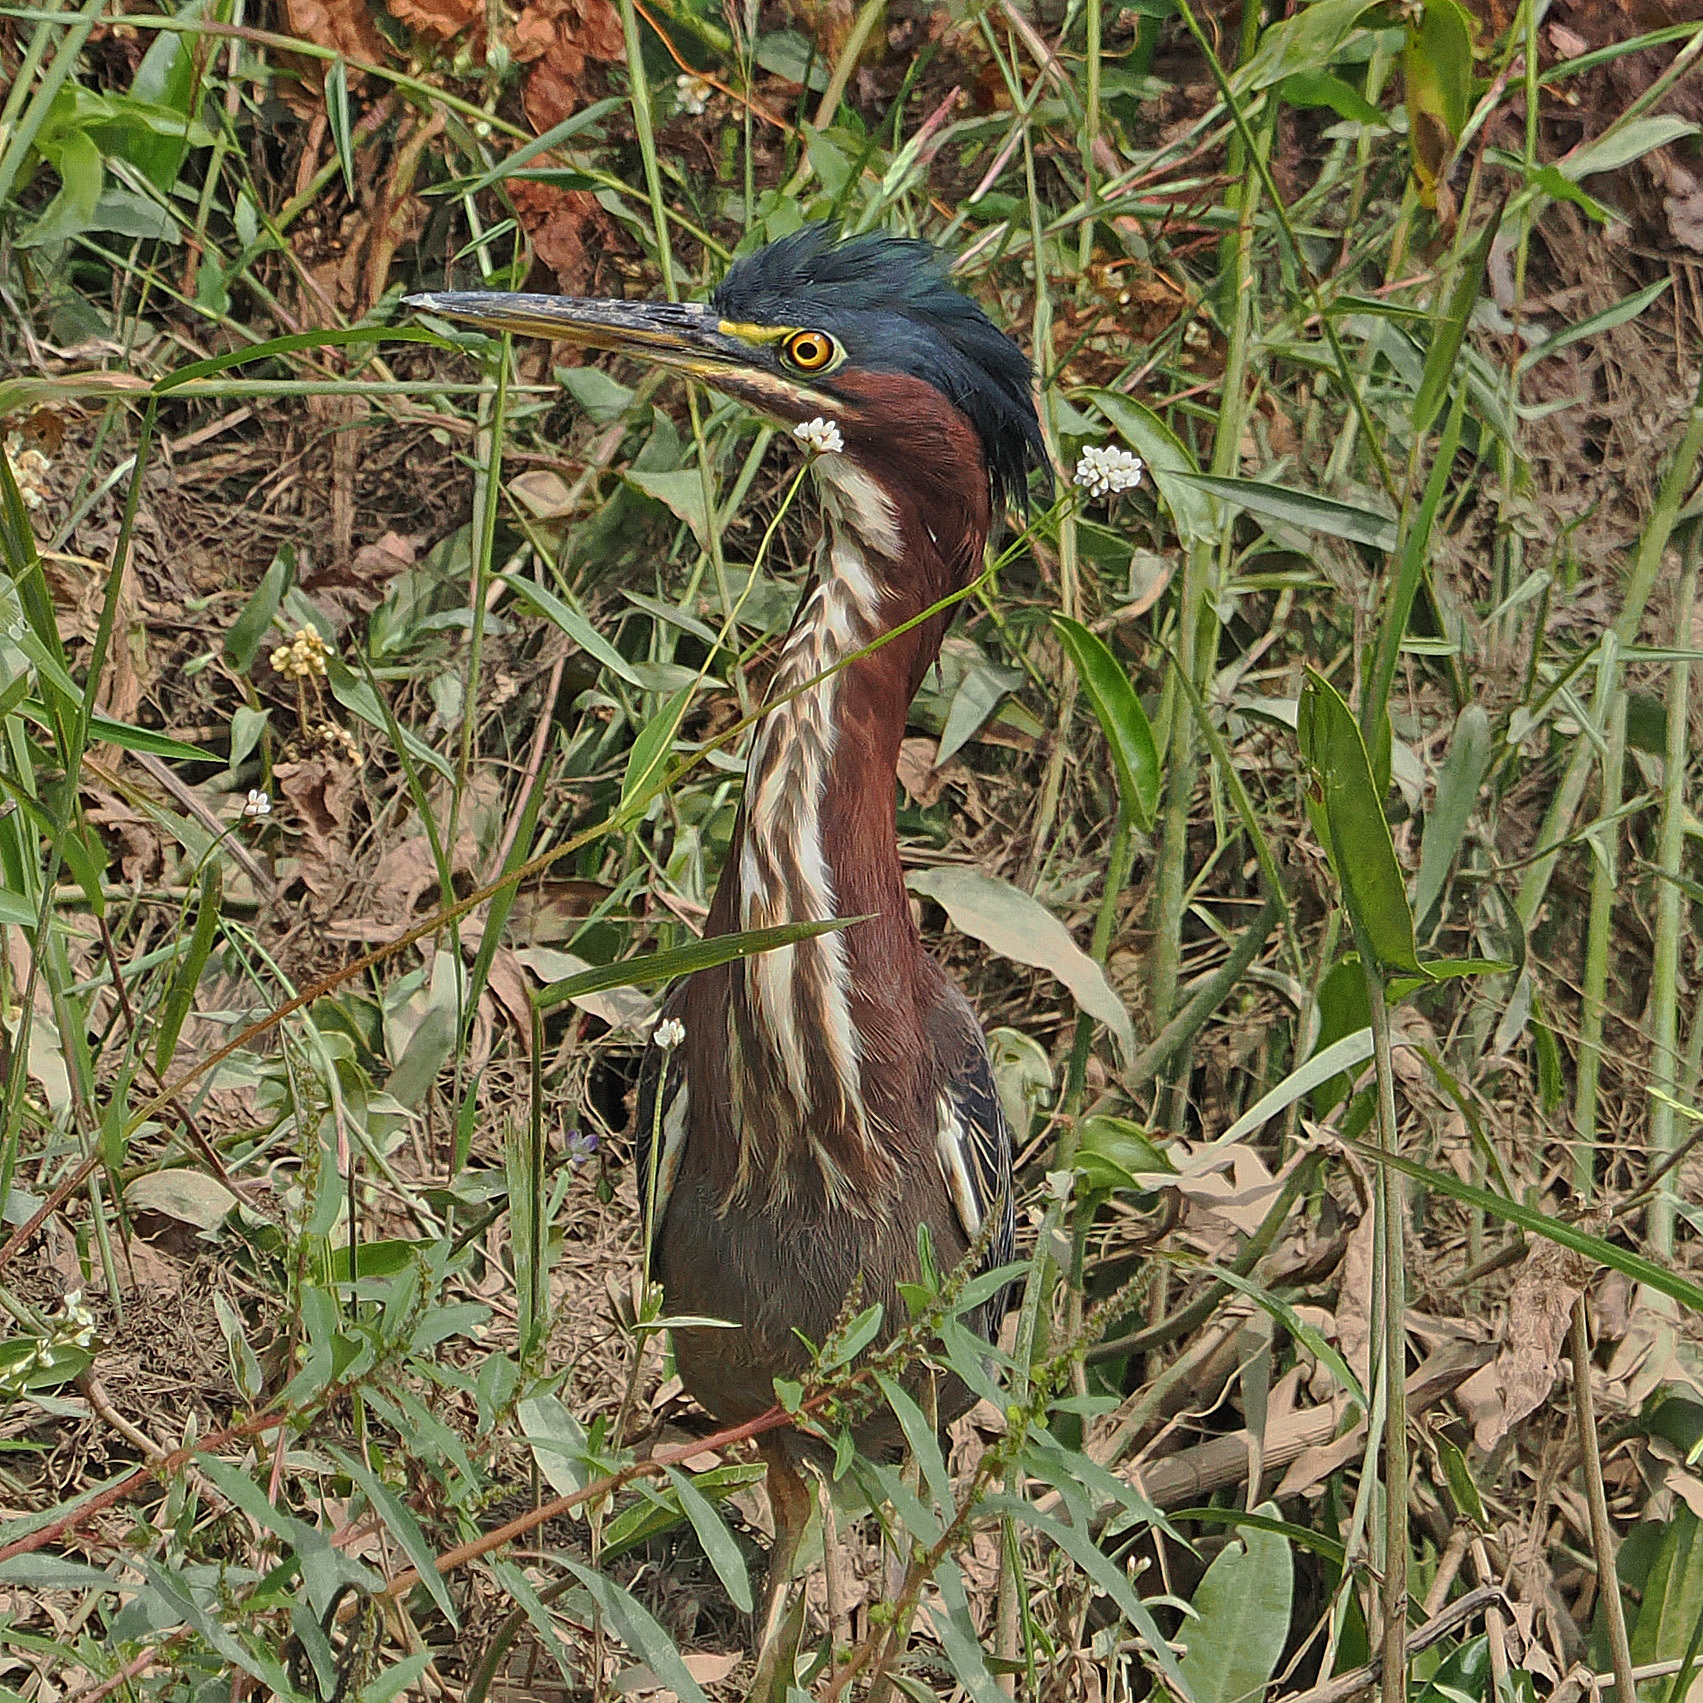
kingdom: Animalia
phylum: Chordata
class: Aves
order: Pelecaniformes
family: Ardeidae
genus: Butorides
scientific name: Butorides virescens
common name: Green heron
